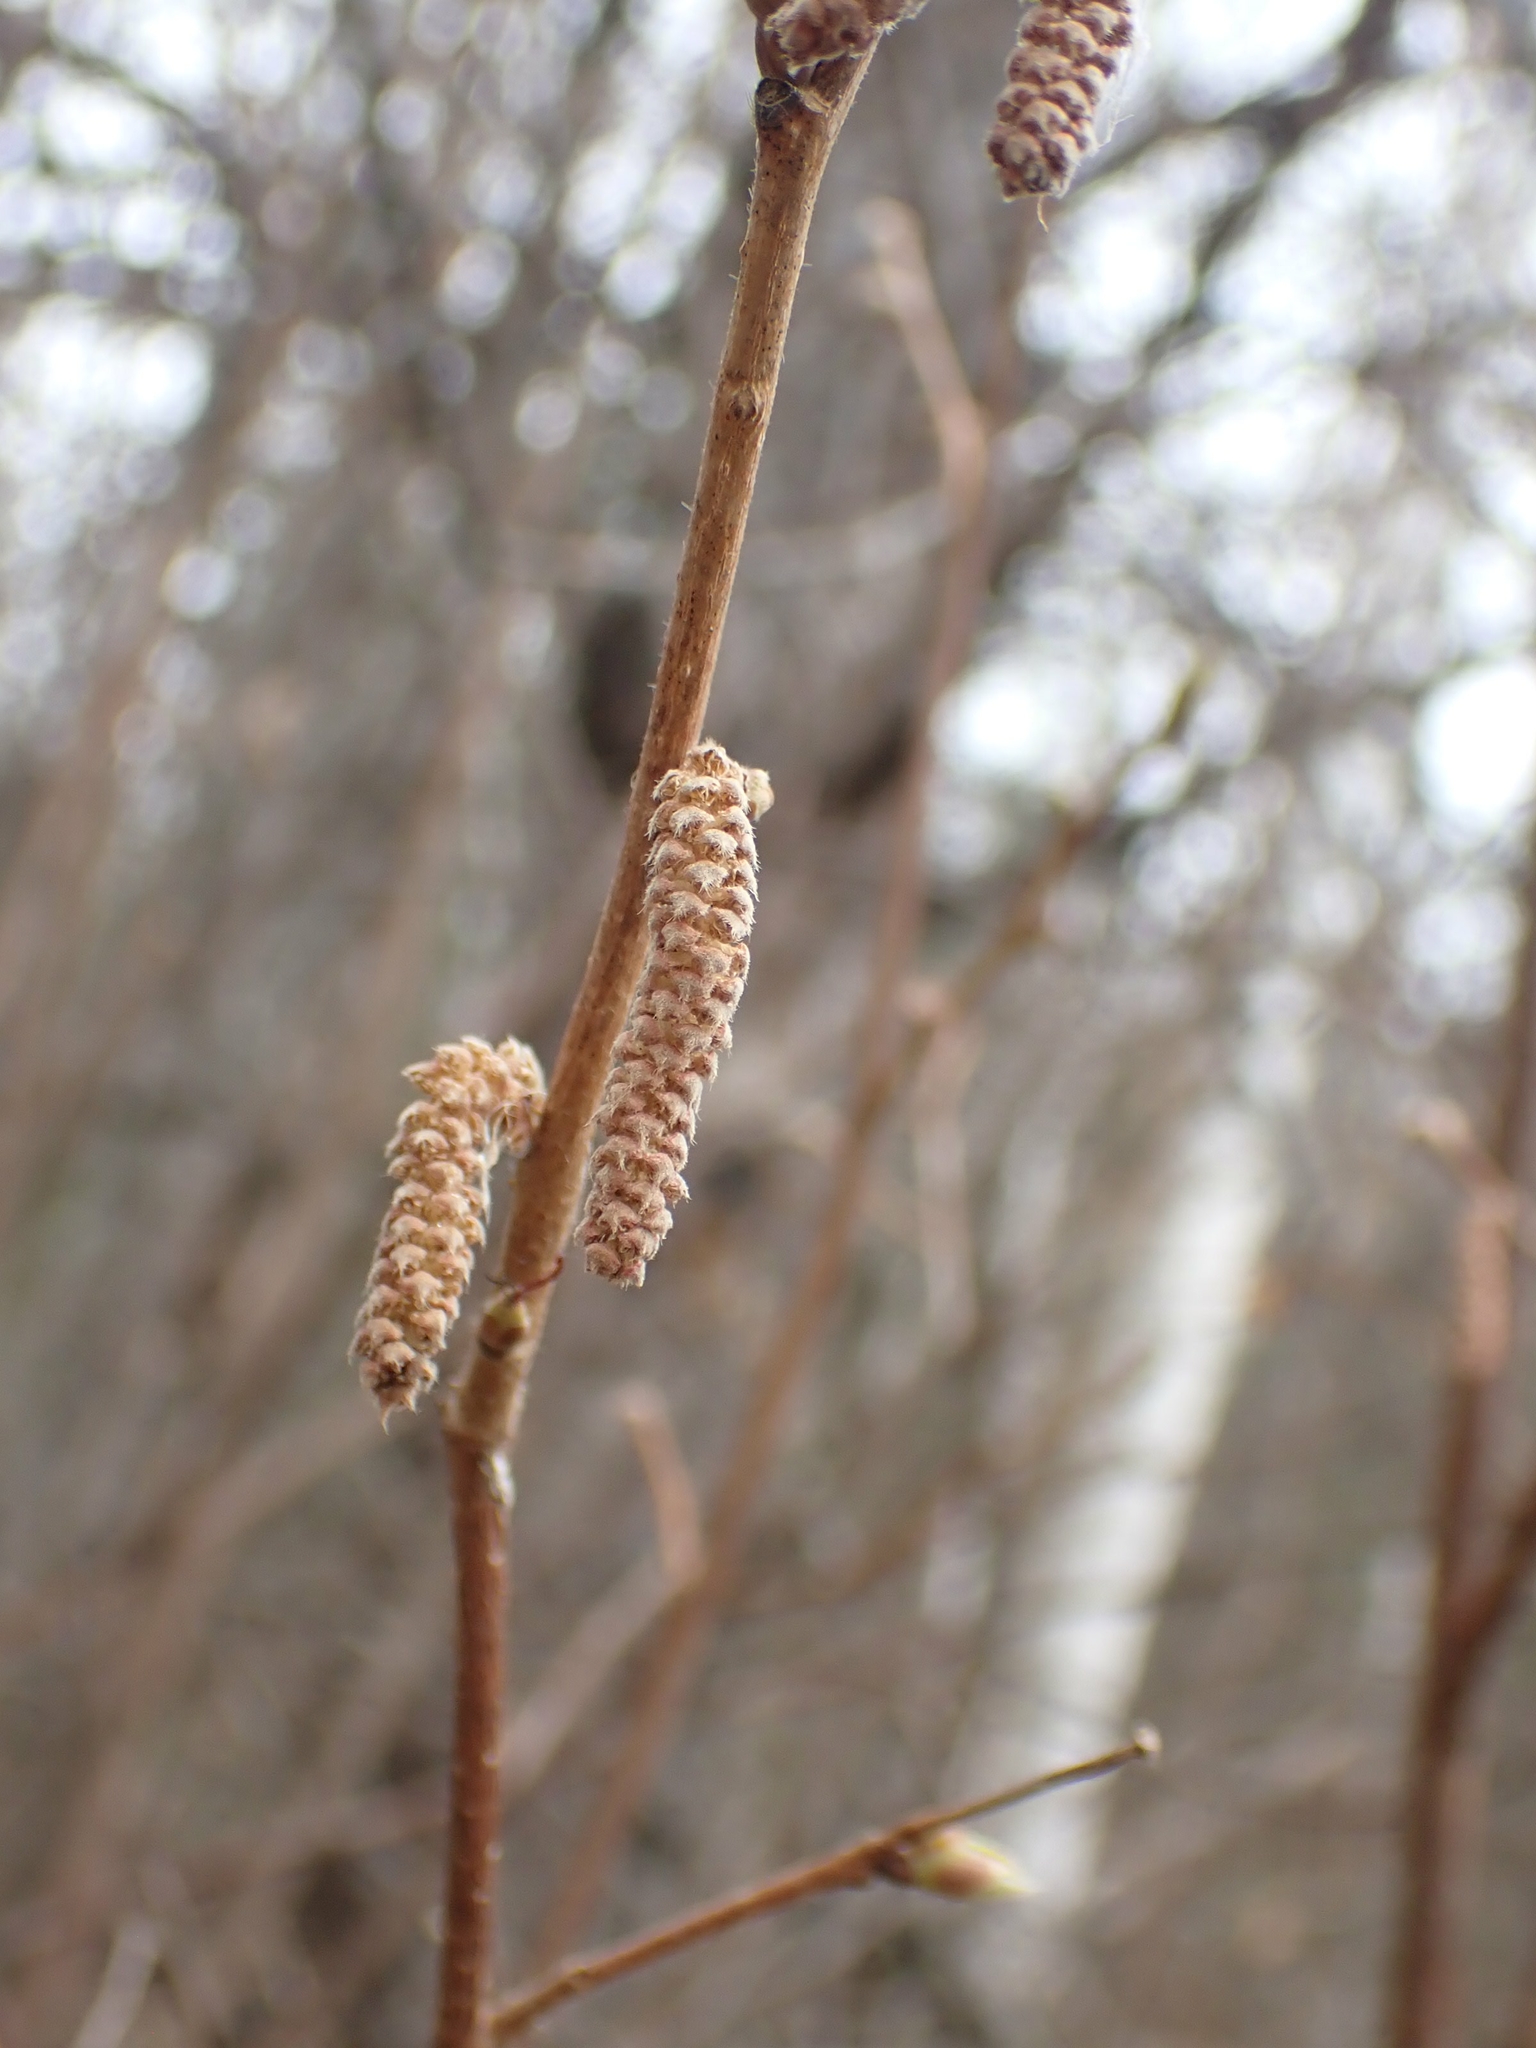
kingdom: Plantae
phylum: Tracheophyta
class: Magnoliopsida
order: Fagales
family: Betulaceae
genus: Corylus
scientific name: Corylus americana
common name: American hazel
